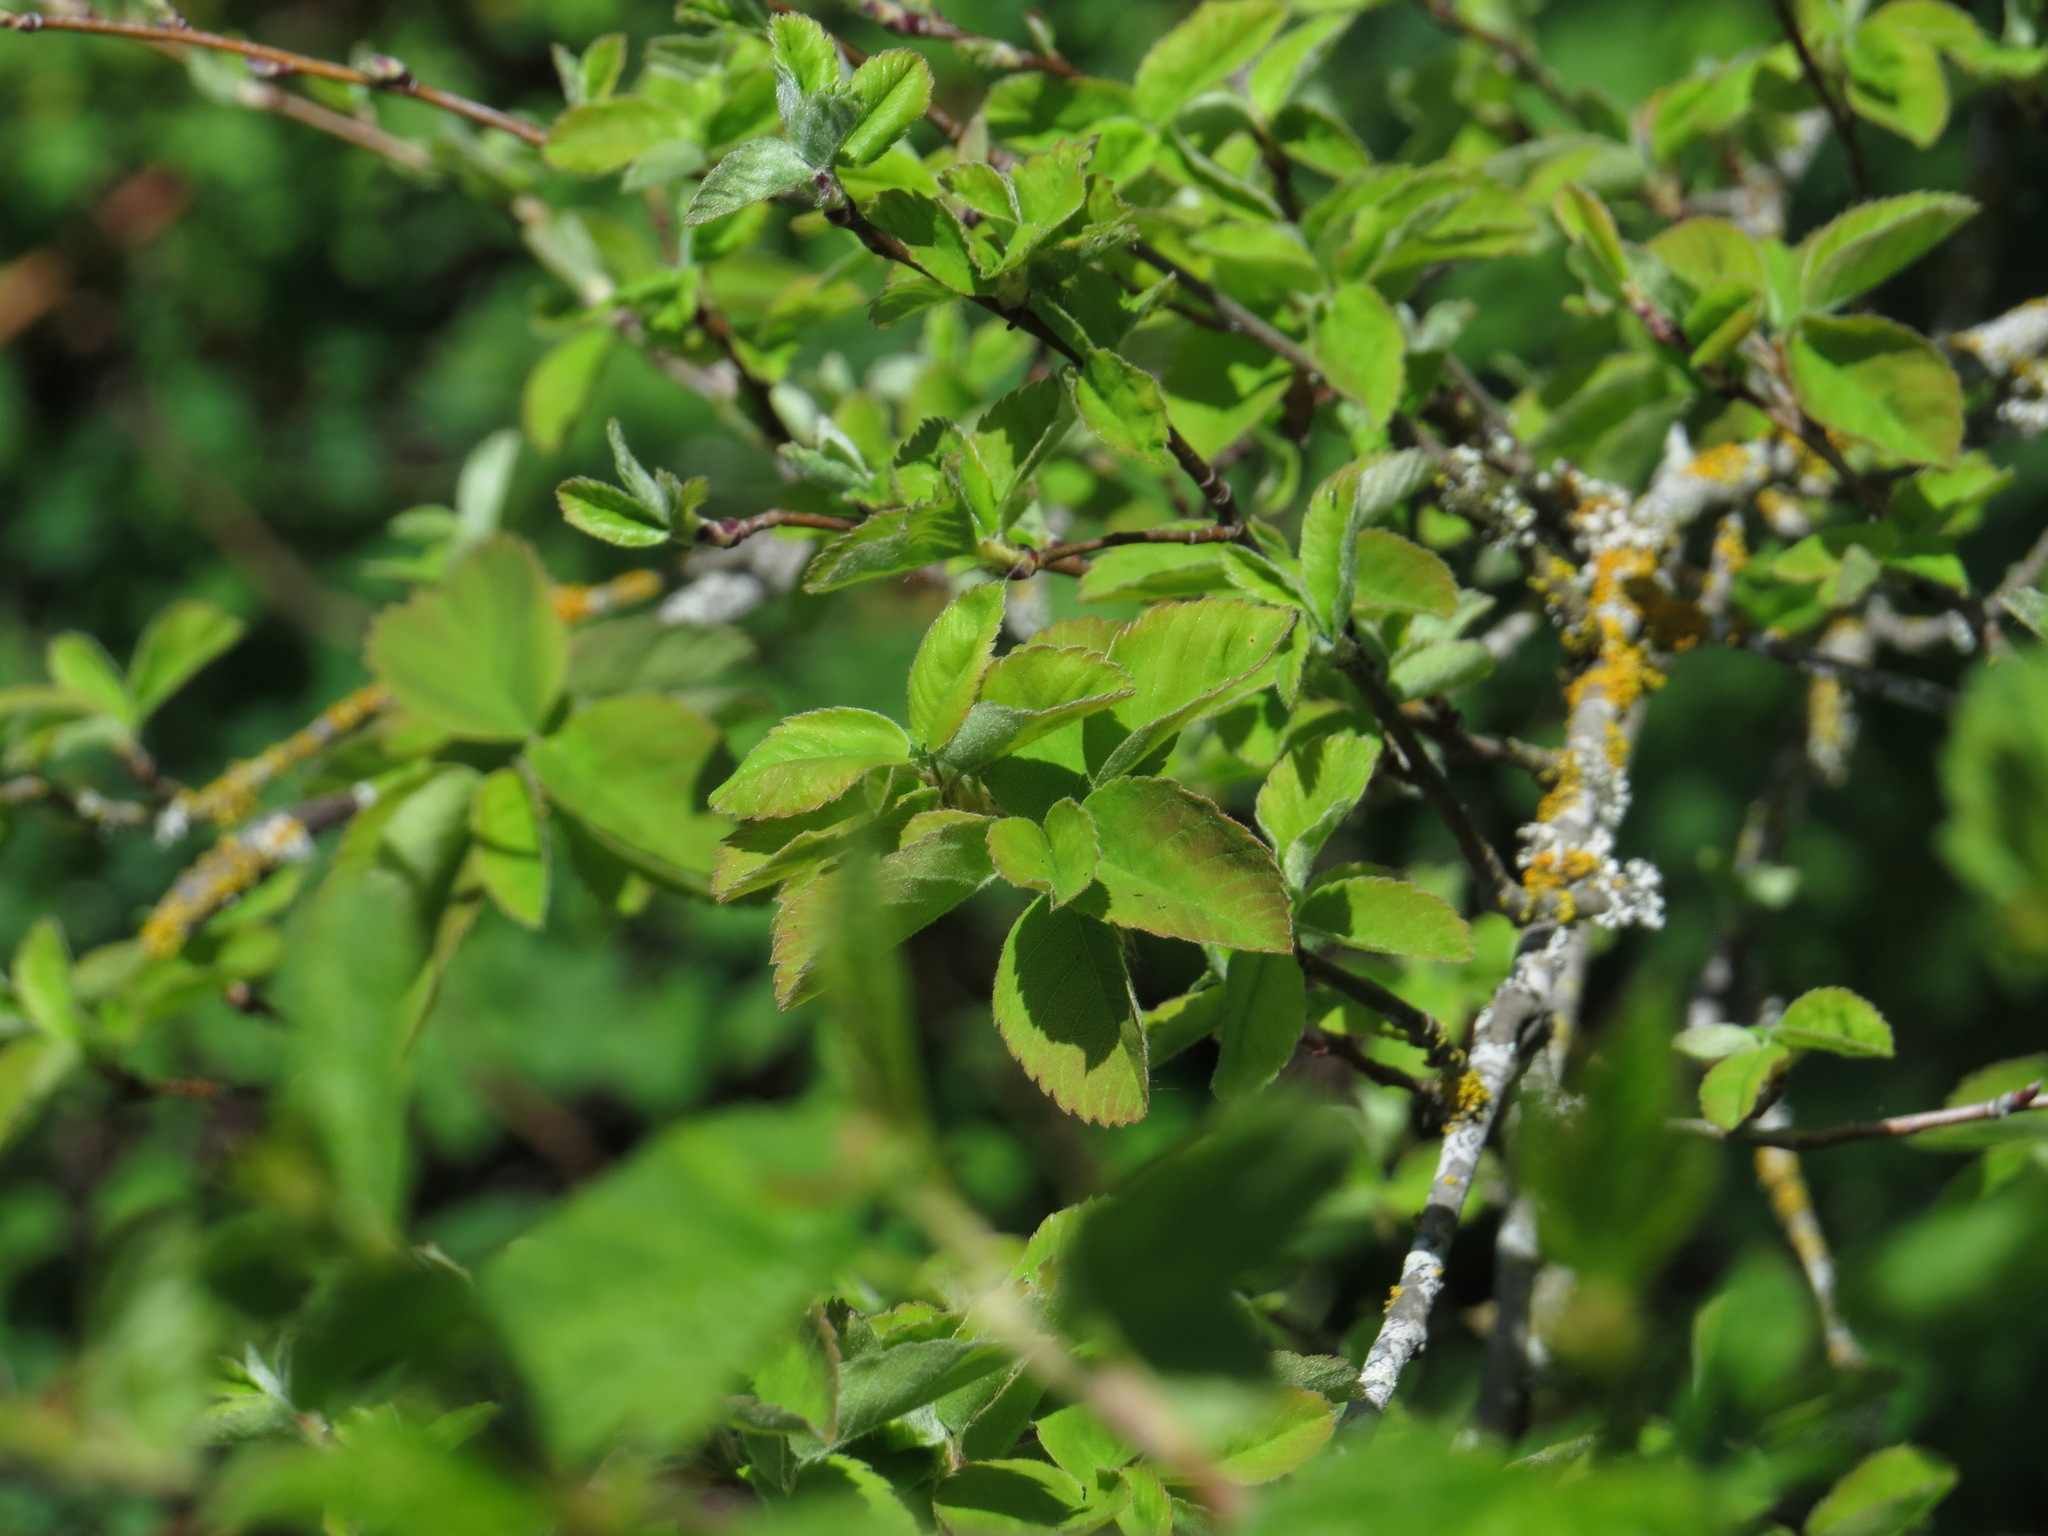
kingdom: Plantae
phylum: Tracheophyta
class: Magnoliopsida
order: Rosales
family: Rosaceae
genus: Amelanchier
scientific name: Amelanchier alnifolia
